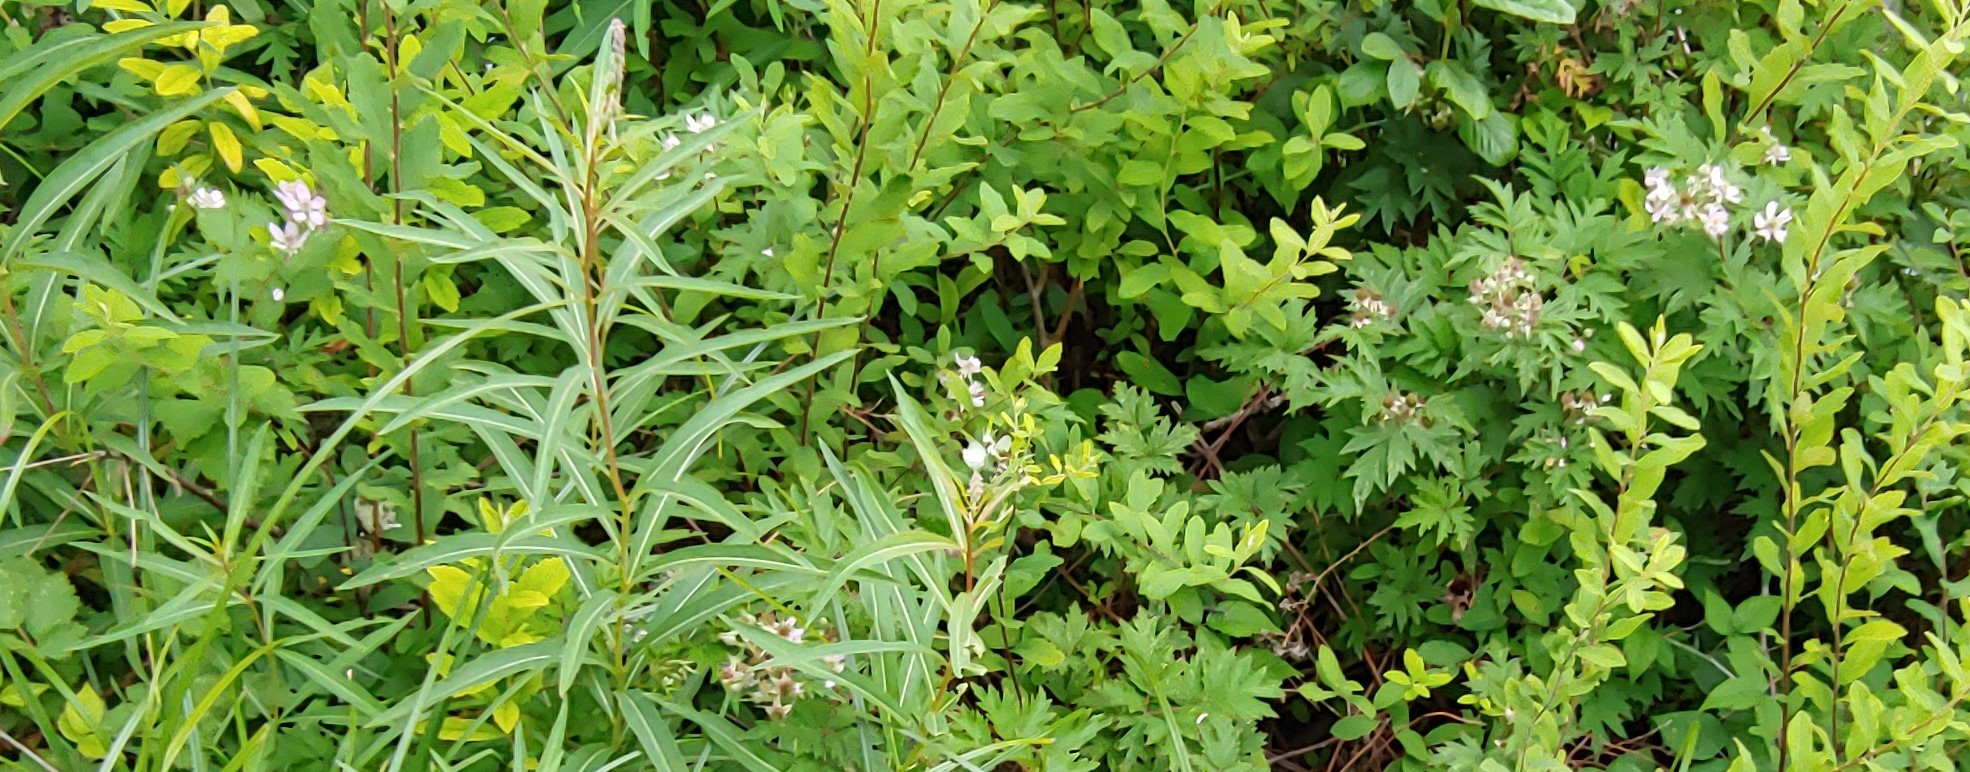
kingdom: Plantae
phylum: Tracheophyta
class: Magnoliopsida
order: Rosales
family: Rosaceae
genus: Rubus
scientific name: Rubus laciniatus
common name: Evergreen blackberry
